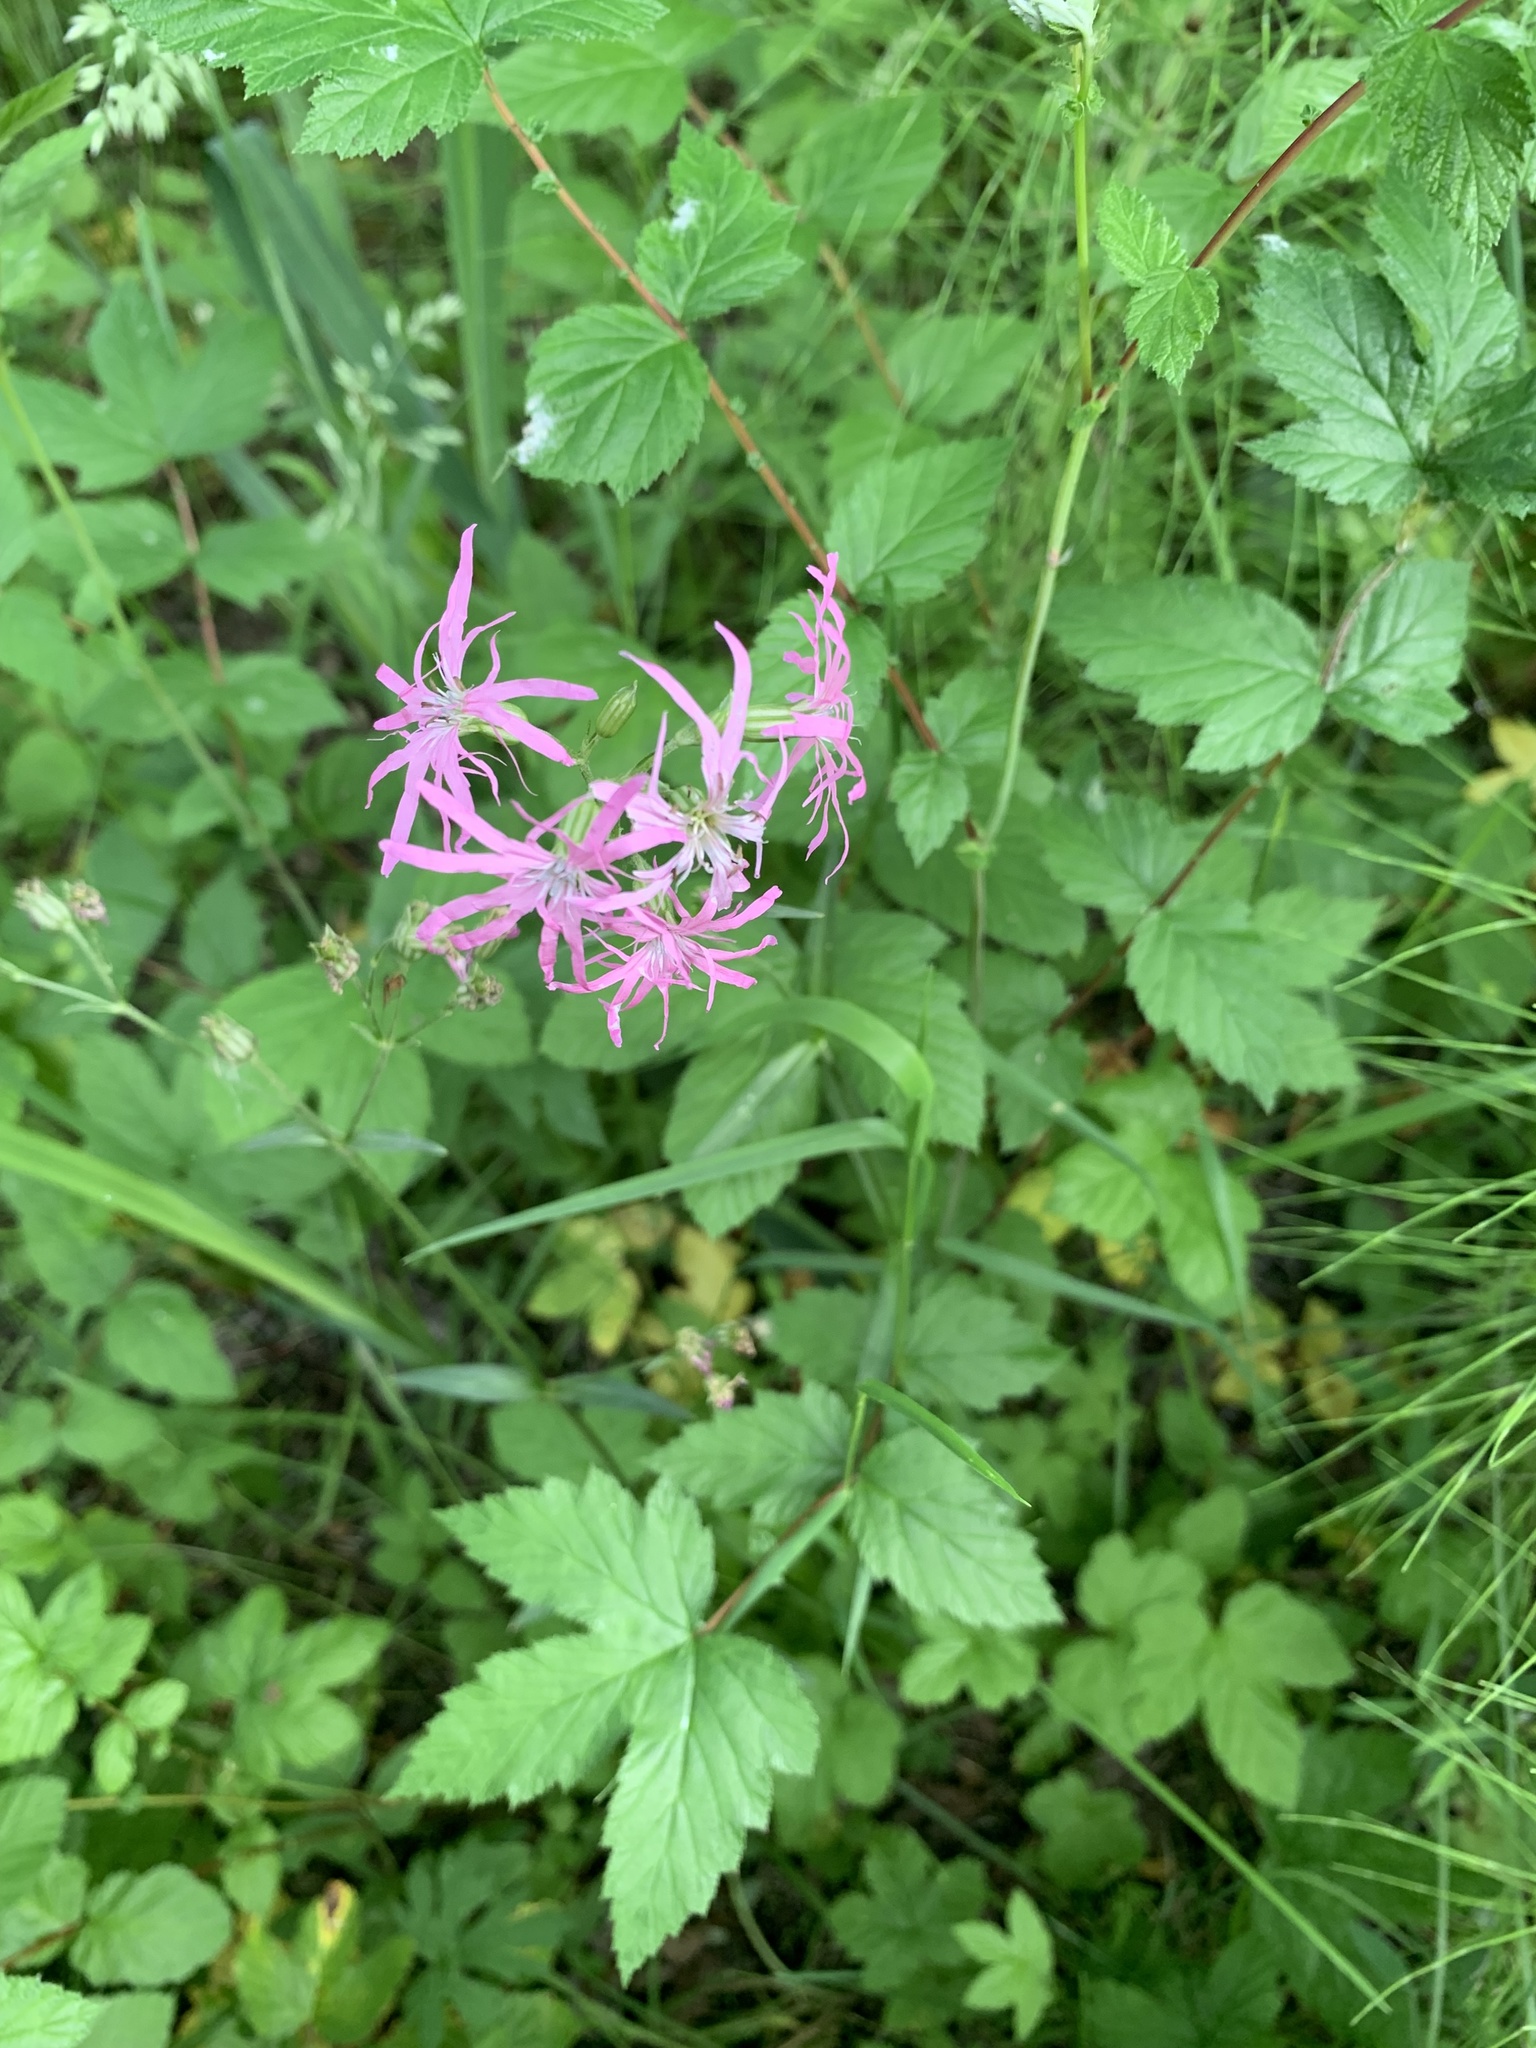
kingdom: Plantae
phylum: Tracheophyta
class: Magnoliopsida
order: Caryophyllales
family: Caryophyllaceae
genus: Silene
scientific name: Silene flos-cuculi
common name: Ragged-robin
